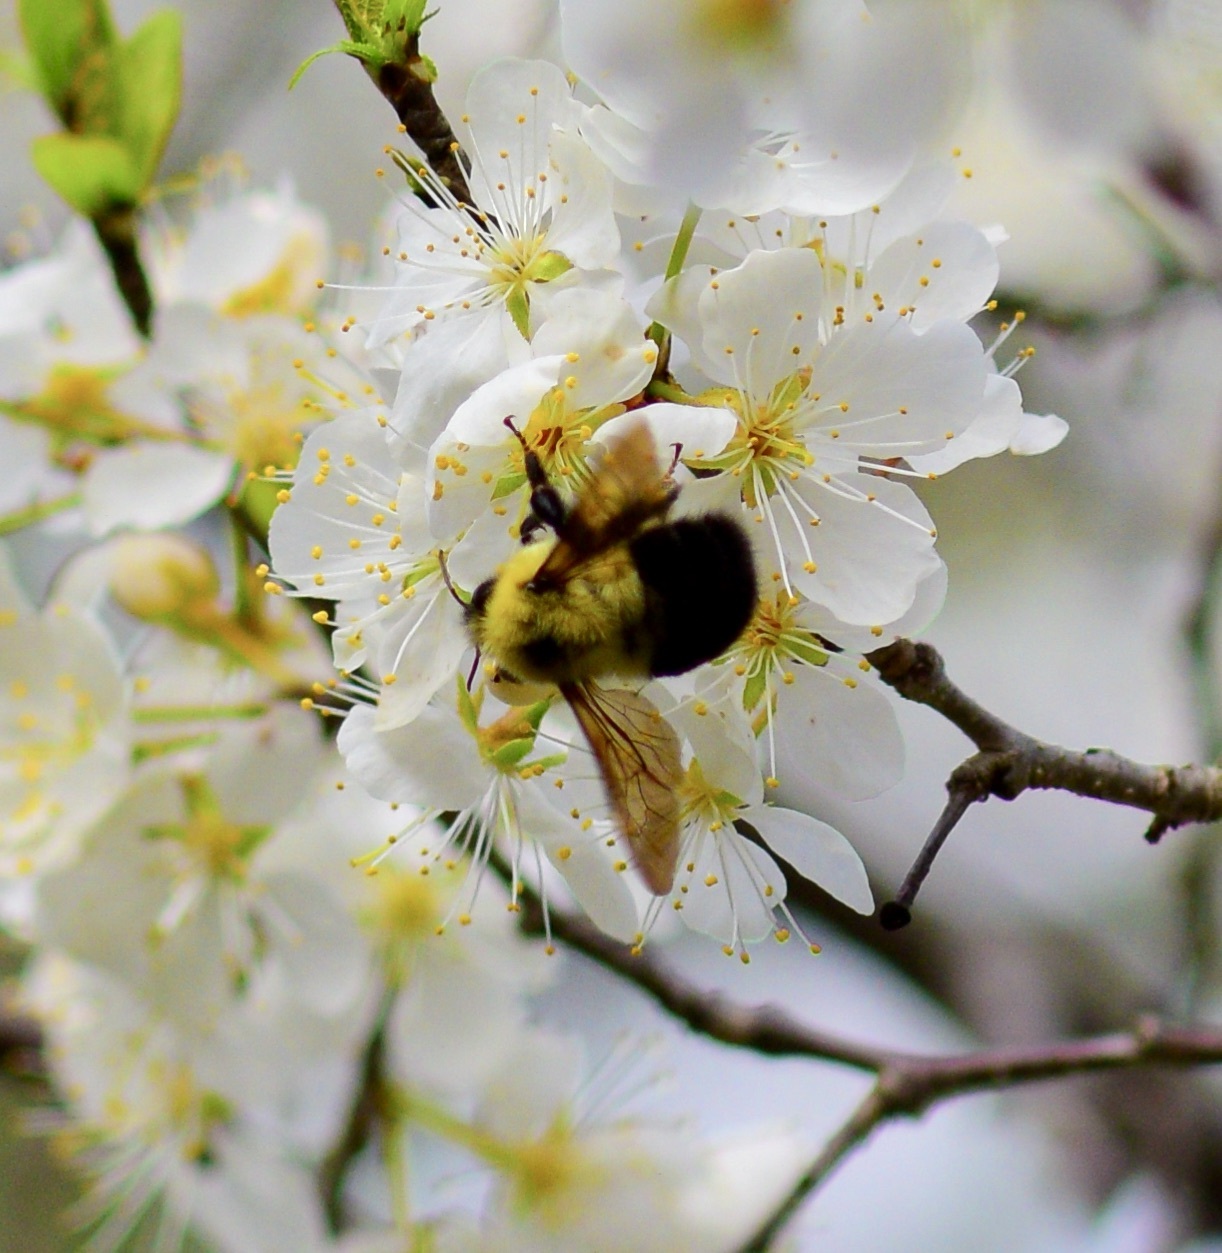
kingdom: Animalia
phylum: Arthropoda
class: Insecta
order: Hymenoptera
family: Apidae
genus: Bombus
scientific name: Bombus bimaculatus
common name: Two-spotted bumble bee
